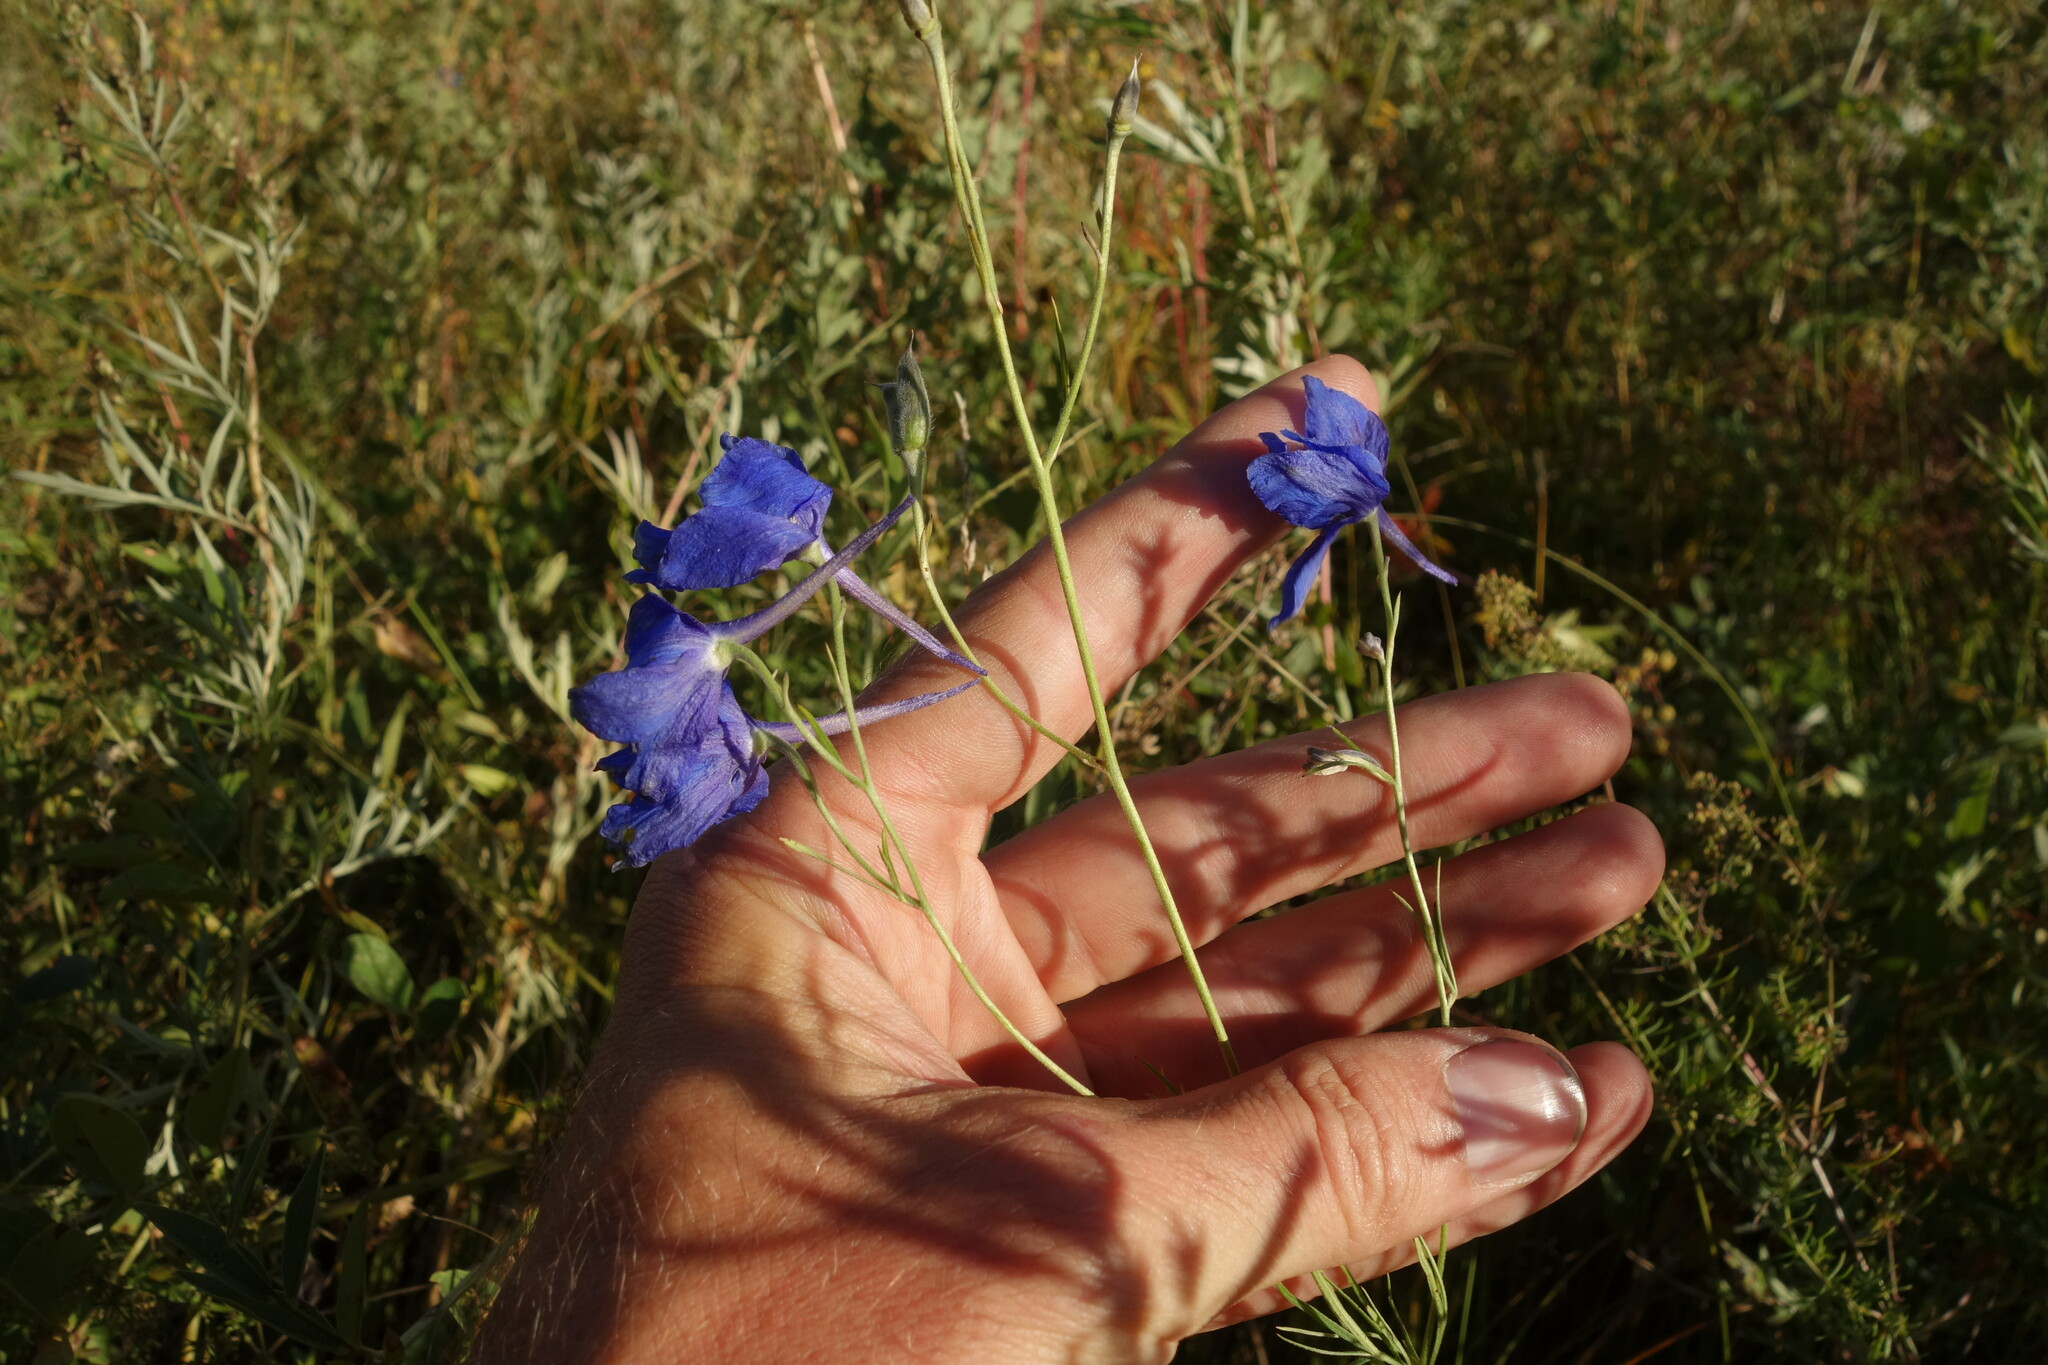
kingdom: Plantae
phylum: Tracheophyta
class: Magnoliopsida
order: Ranunculales
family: Ranunculaceae
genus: Delphinium
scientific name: Delphinium grandiflorum
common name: Siberian larkspur
